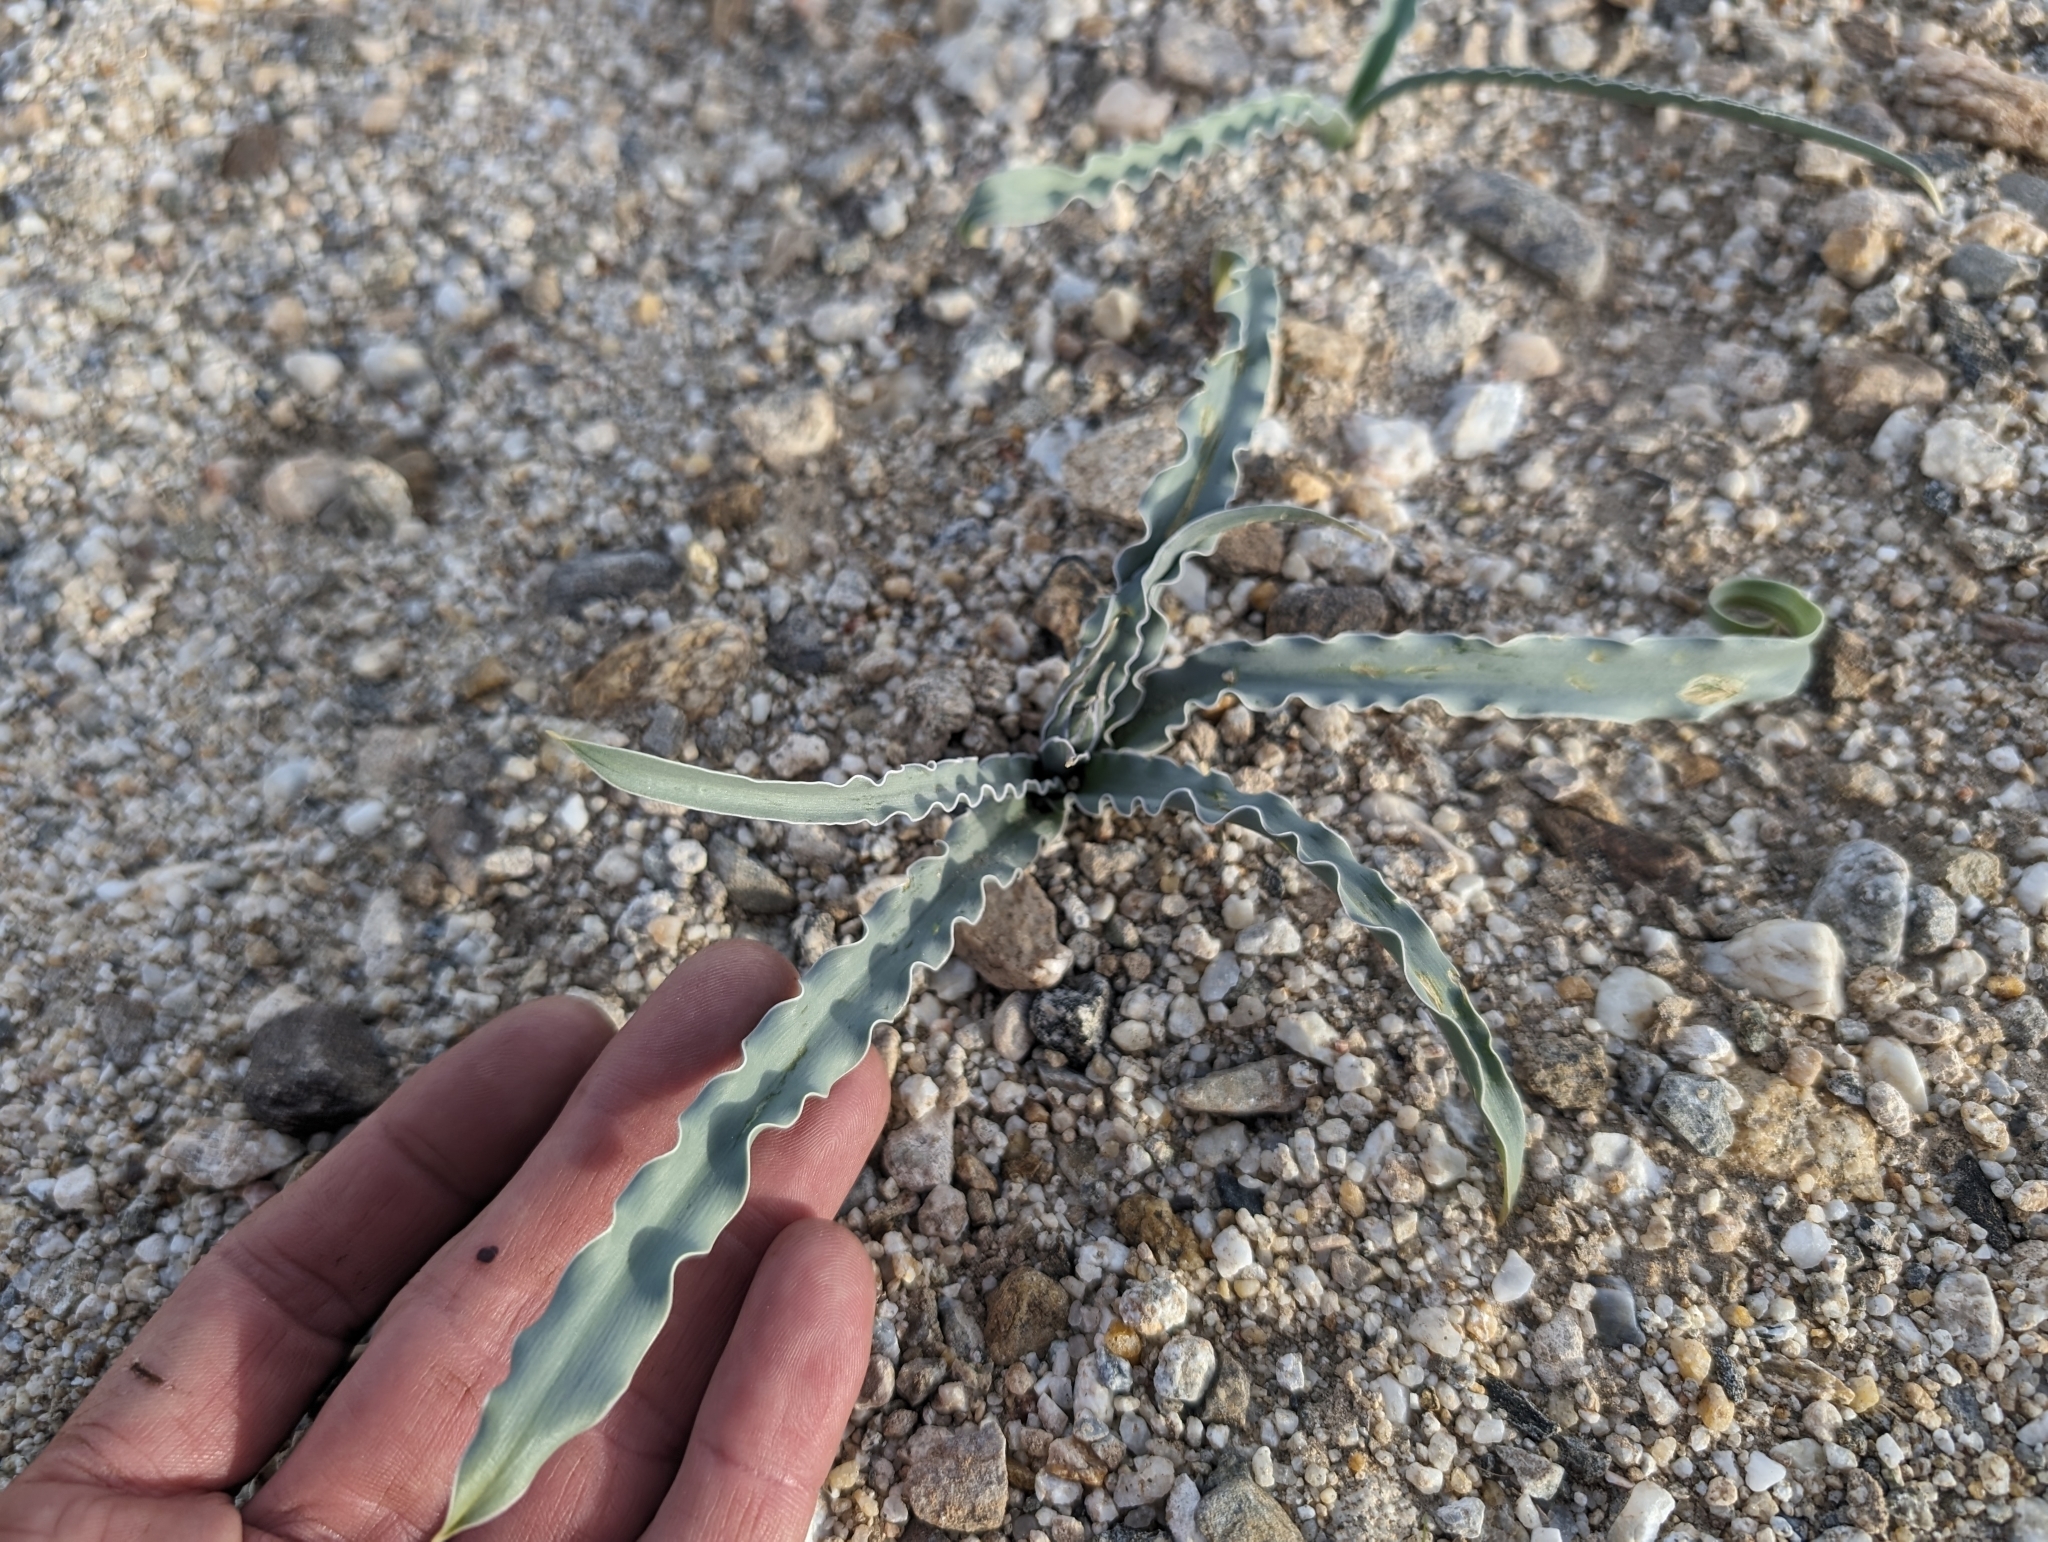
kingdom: Plantae
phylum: Tracheophyta
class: Liliopsida
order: Asparagales
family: Asparagaceae
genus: Hesperocallis
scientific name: Hesperocallis undulata
